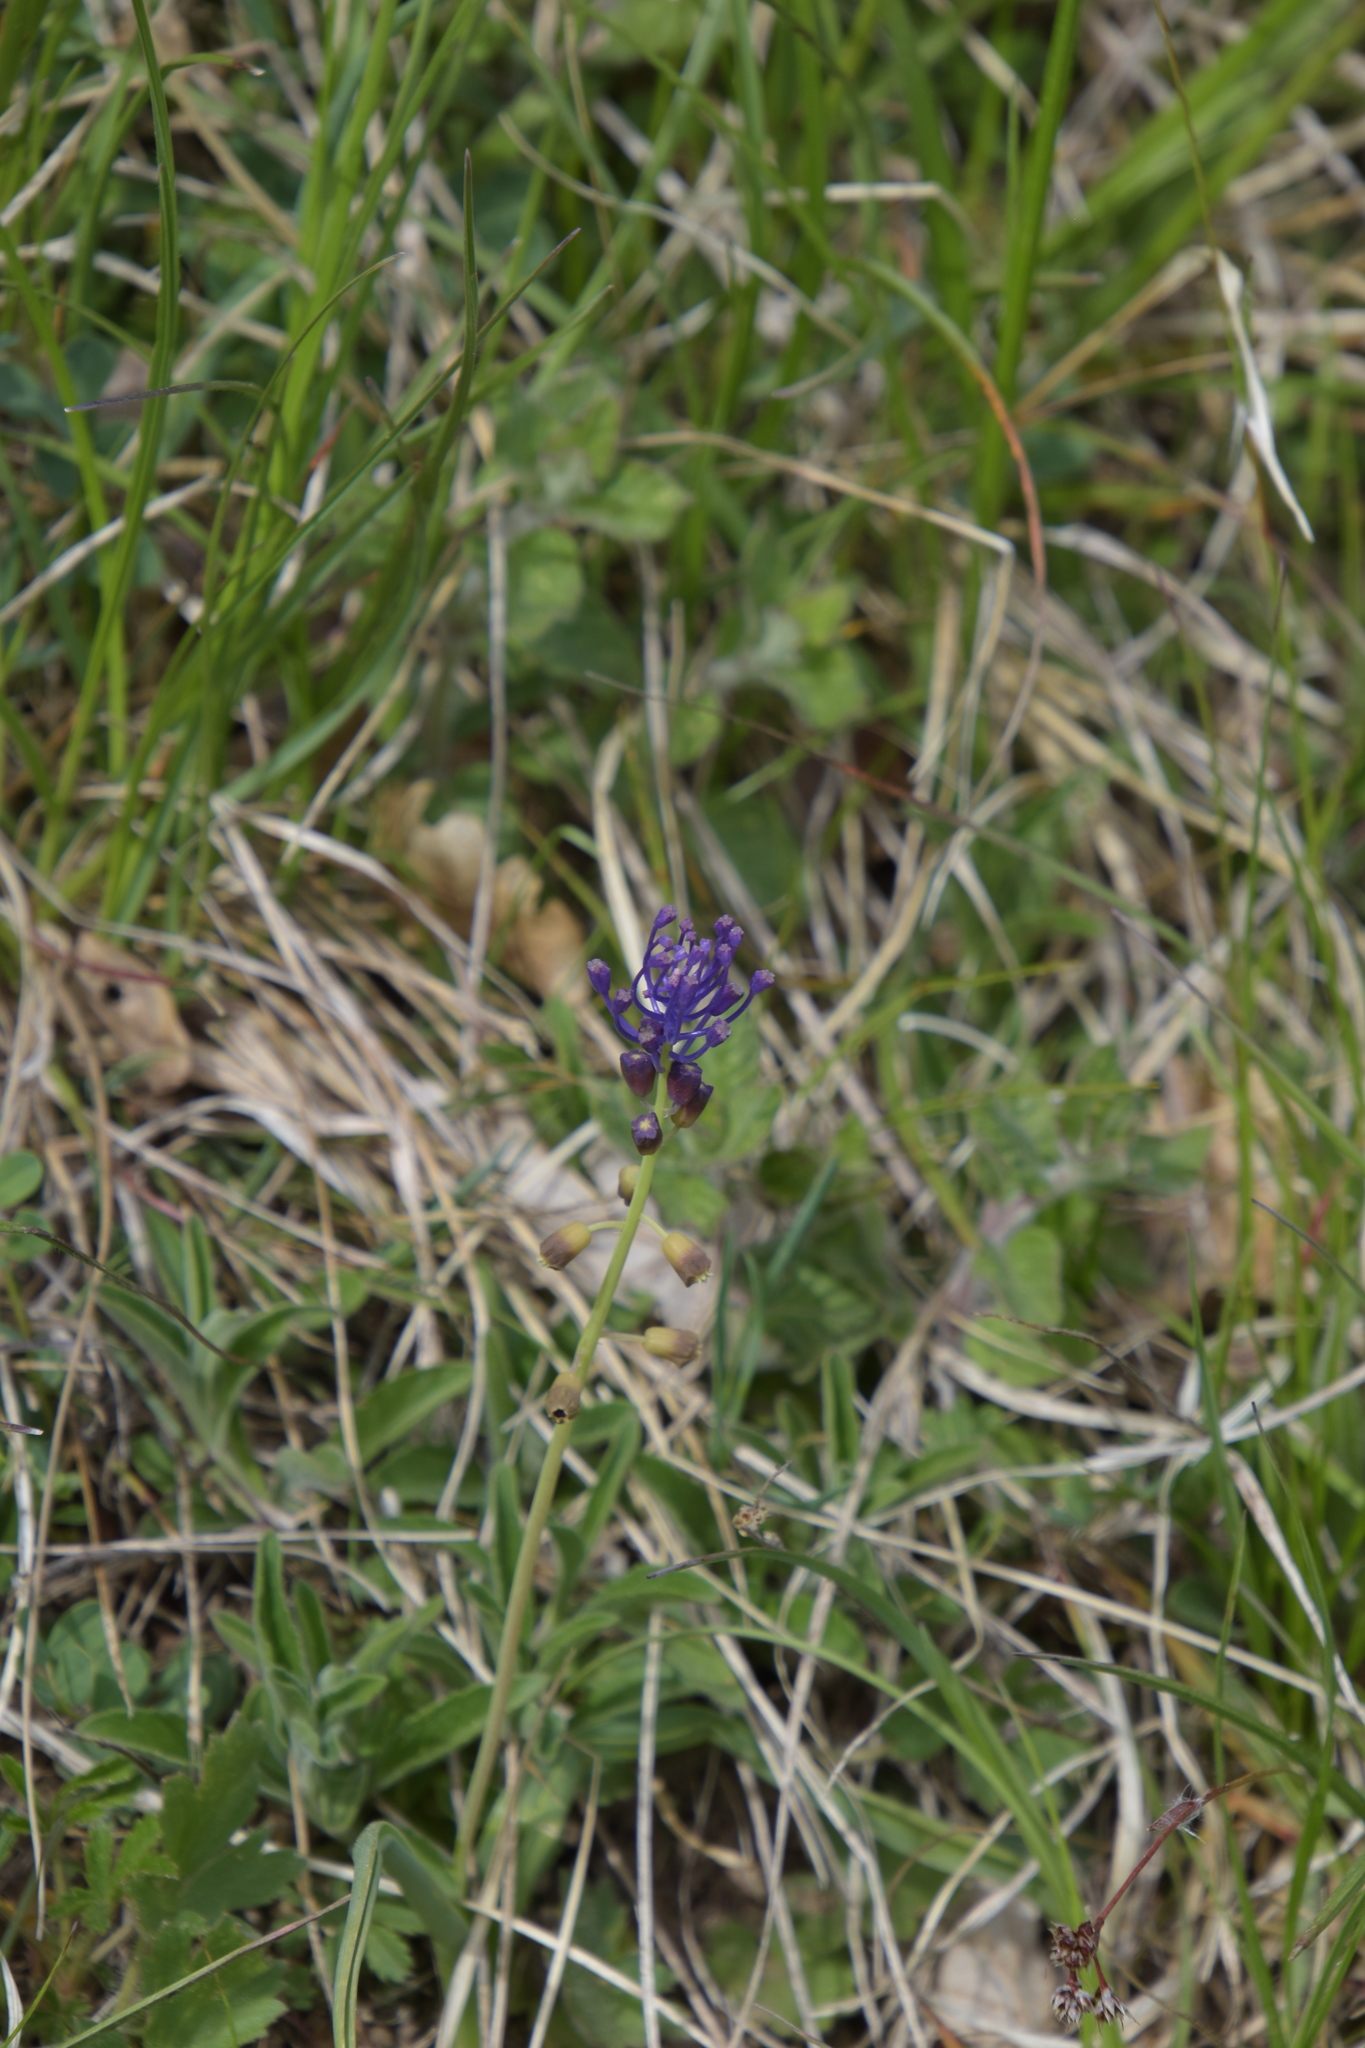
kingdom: Plantae
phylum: Tracheophyta
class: Liliopsida
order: Asparagales
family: Asparagaceae
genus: Muscari
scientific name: Muscari comosum
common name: Tassel hyacinth
